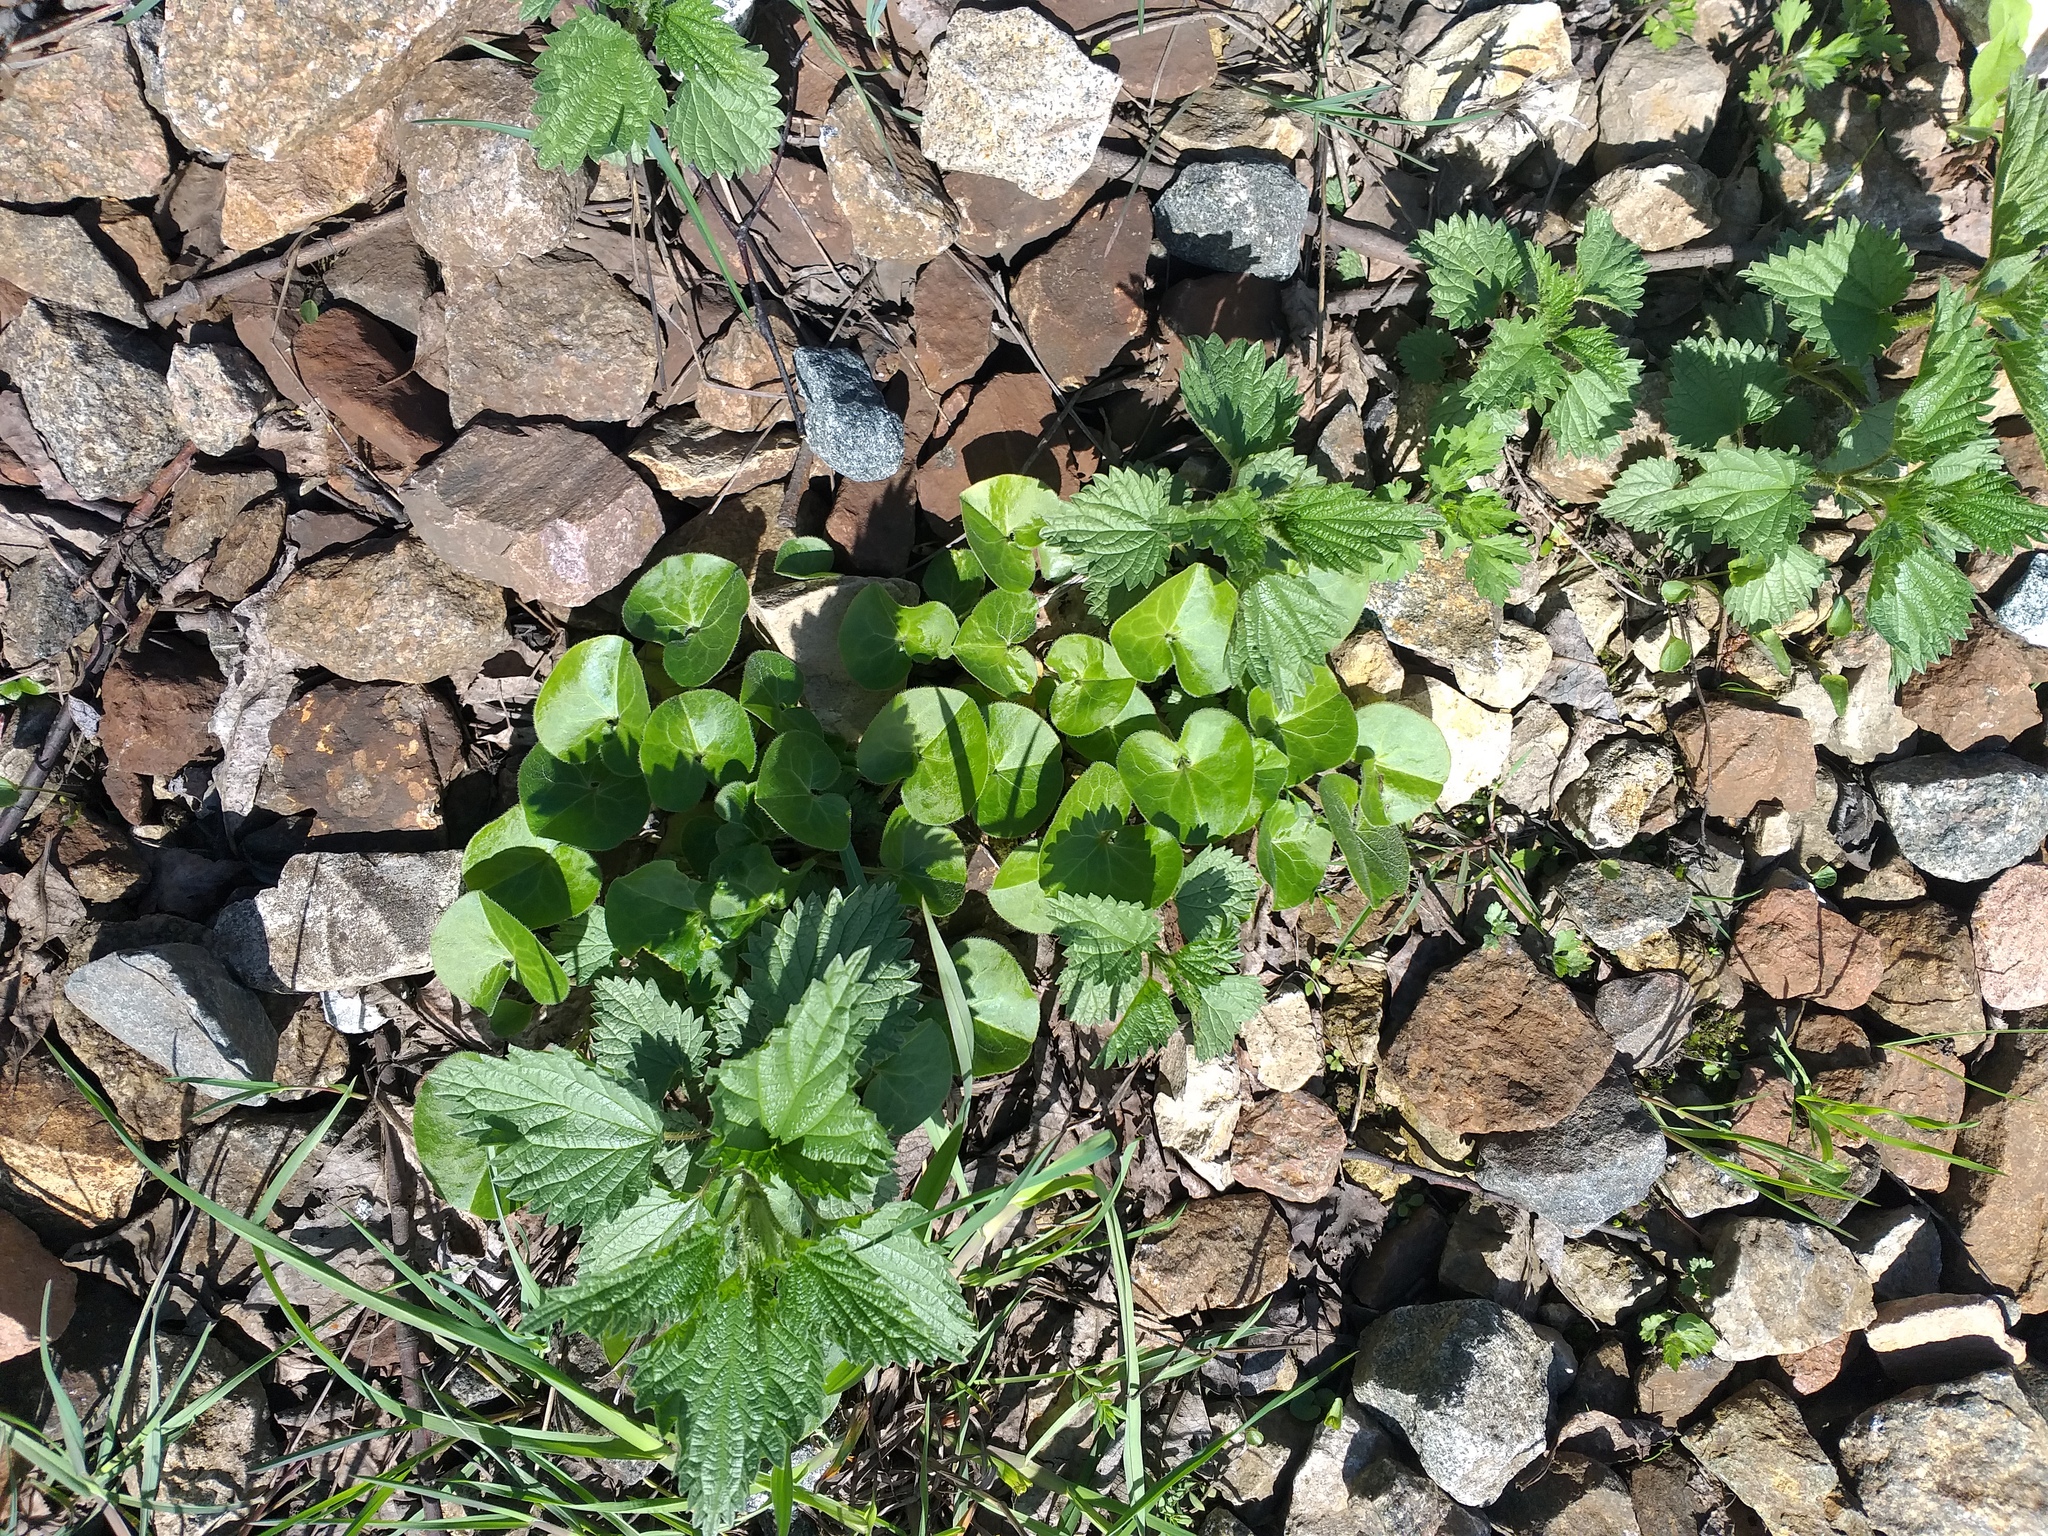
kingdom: Plantae
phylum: Tracheophyta
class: Magnoliopsida
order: Piperales
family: Aristolochiaceae
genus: Asarum
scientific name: Asarum europaeum
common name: Asarabacca
